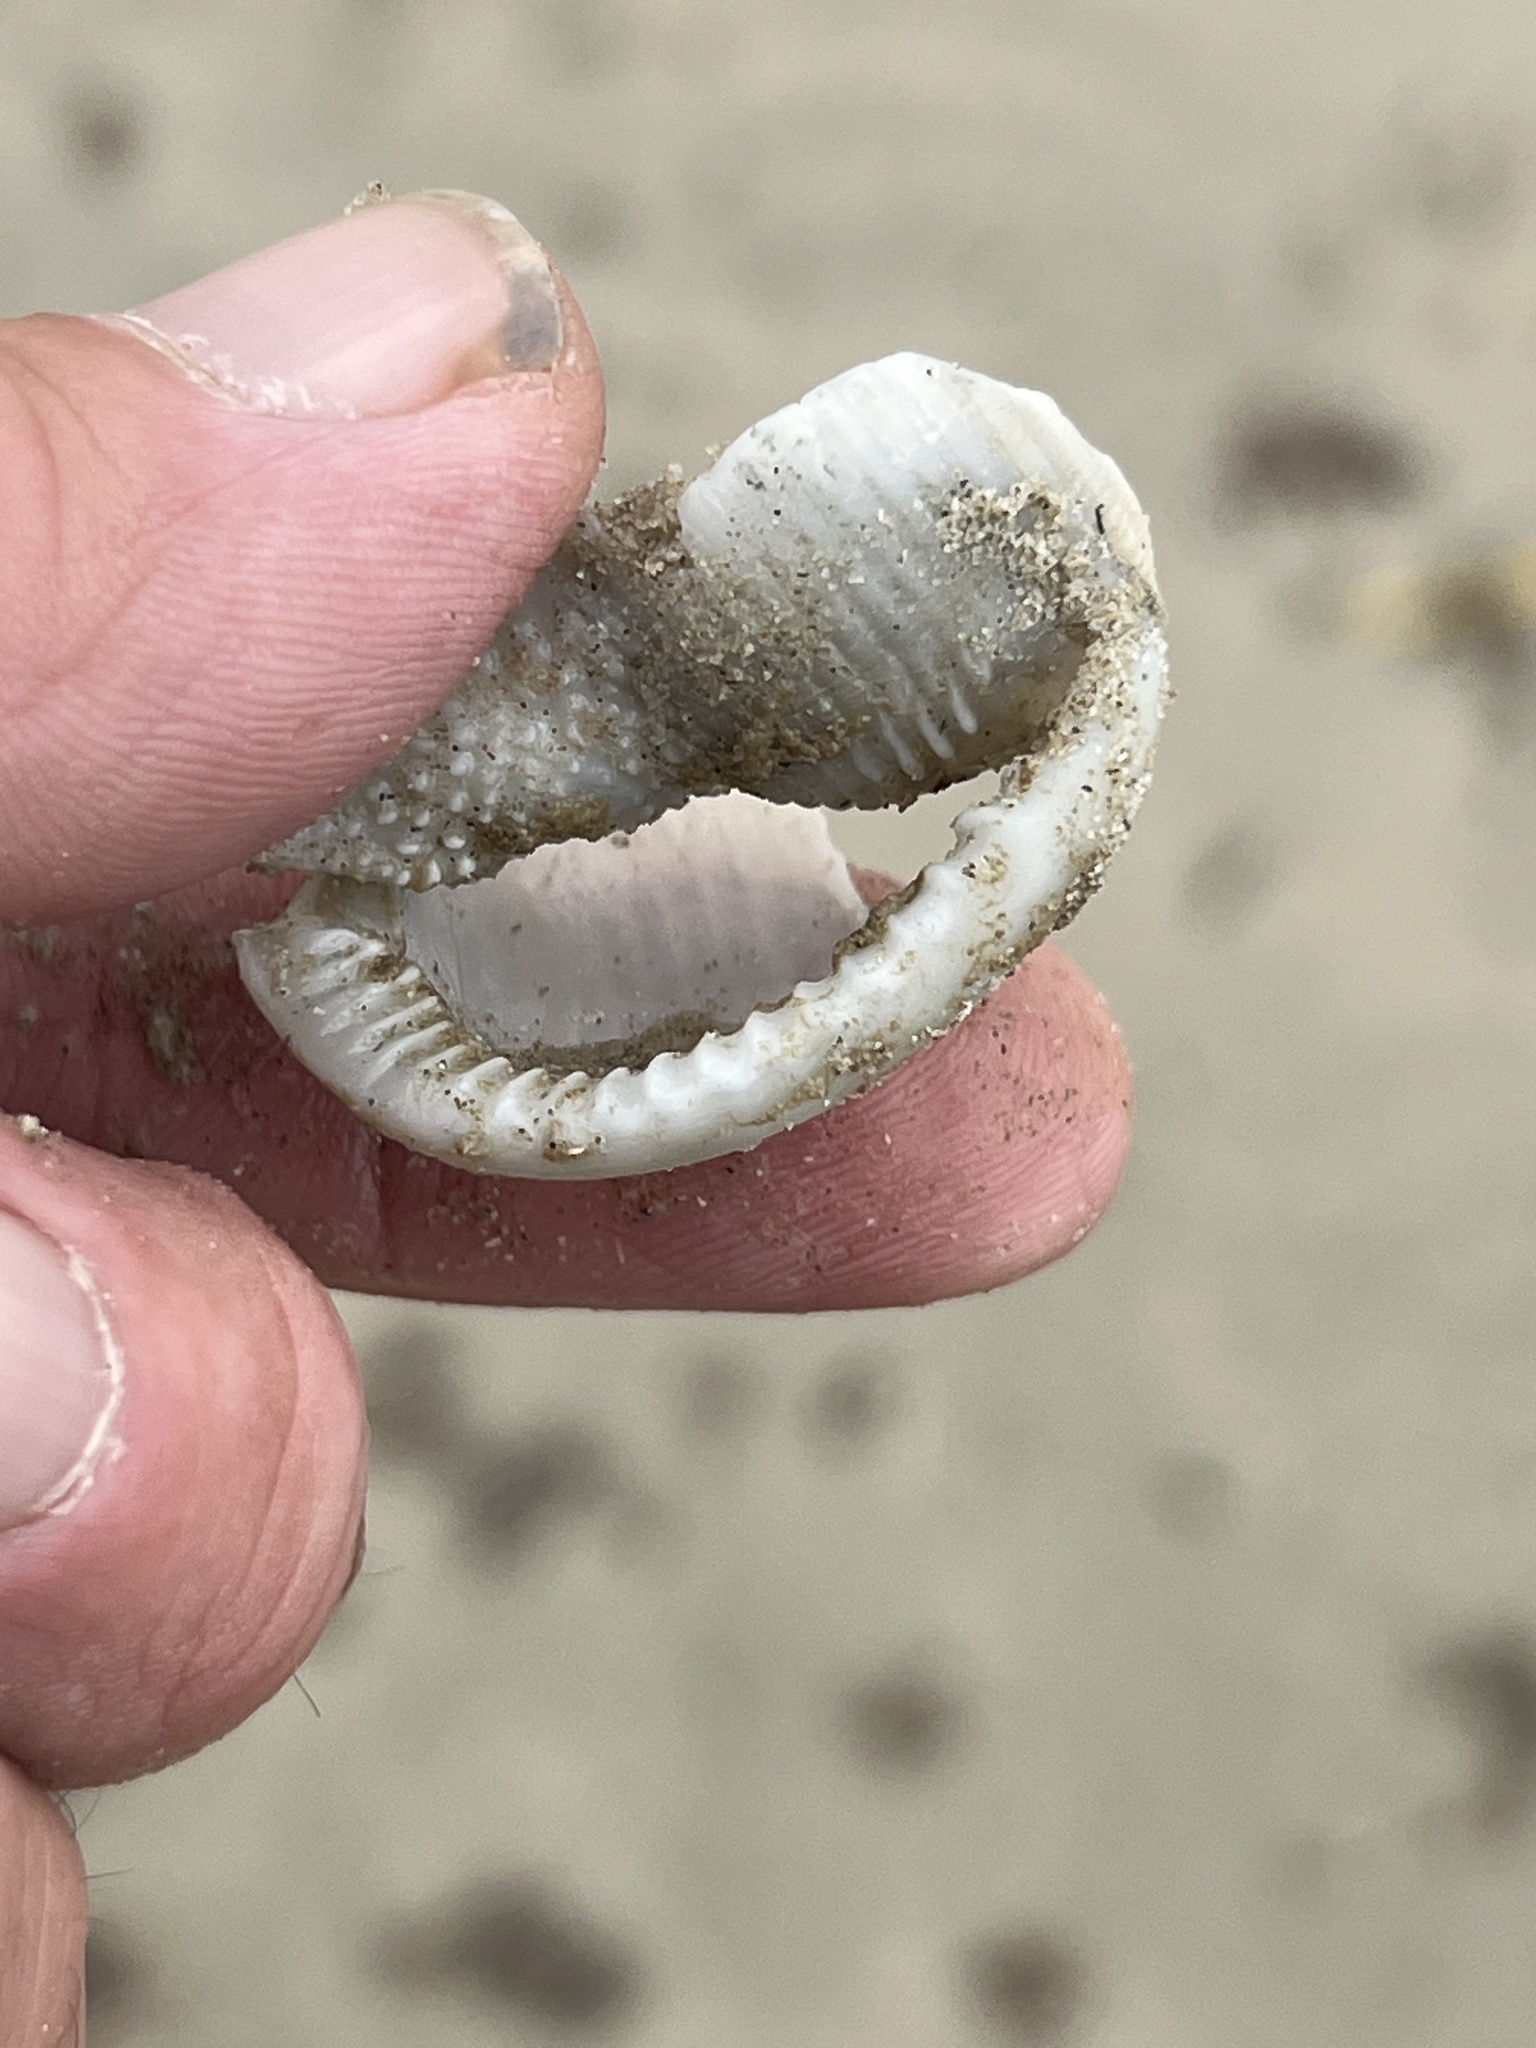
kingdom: Animalia
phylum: Mollusca
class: Gastropoda
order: Littorinimorpha
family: Cassidae
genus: Semicassis
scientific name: Semicassis granulata
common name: Scotch bonnet
